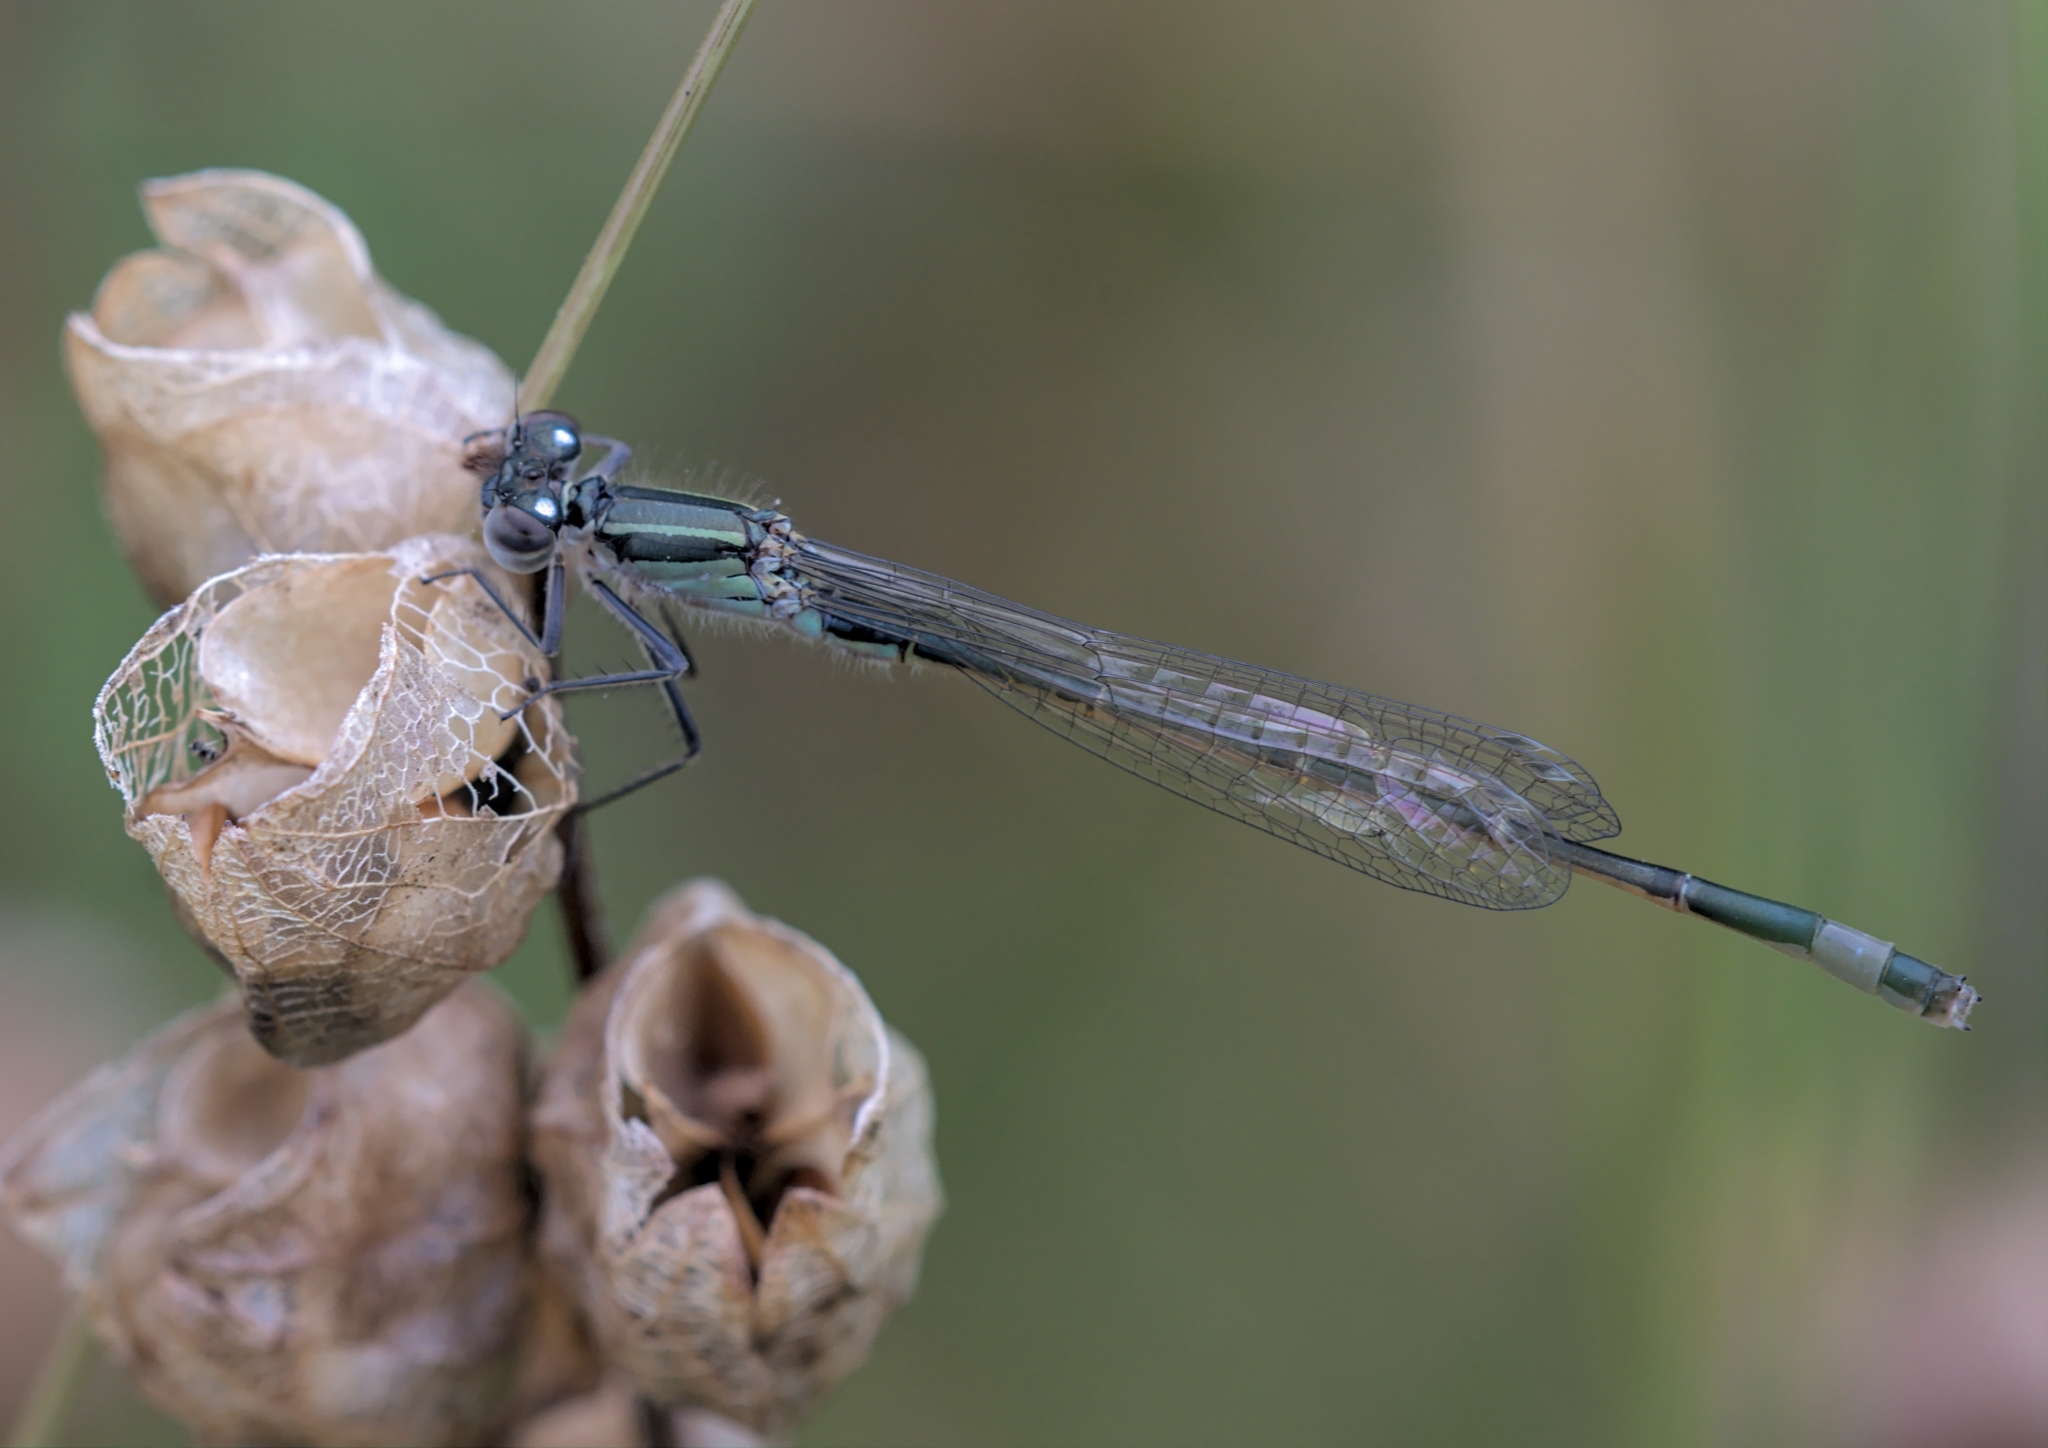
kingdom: Animalia
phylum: Arthropoda
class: Insecta
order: Odonata
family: Coenagrionidae
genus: Ischnura
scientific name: Ischnura elegans
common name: Blue-tailed damselfly
